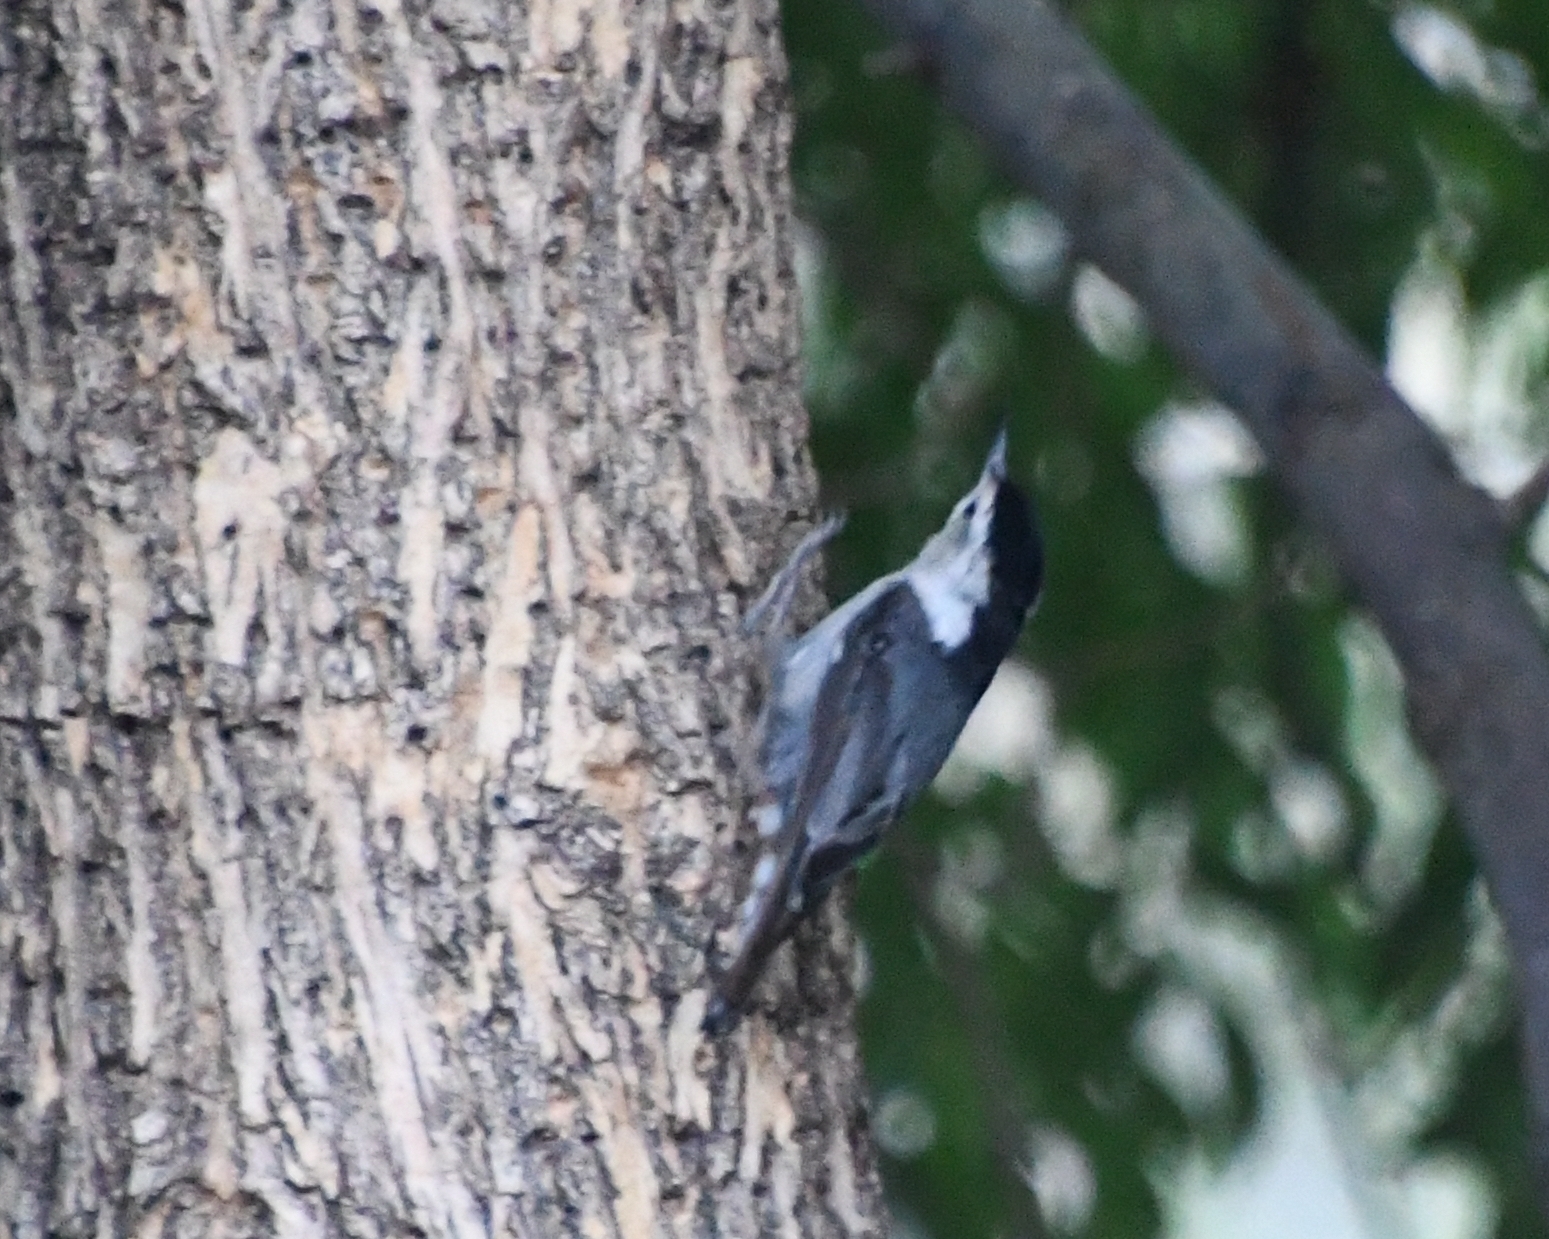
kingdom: Animalia
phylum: Chordata
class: Aves
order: Passeriformes
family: Sittidae
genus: Sitta
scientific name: Sitta carolinensis
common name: White-breasted nuthatch
